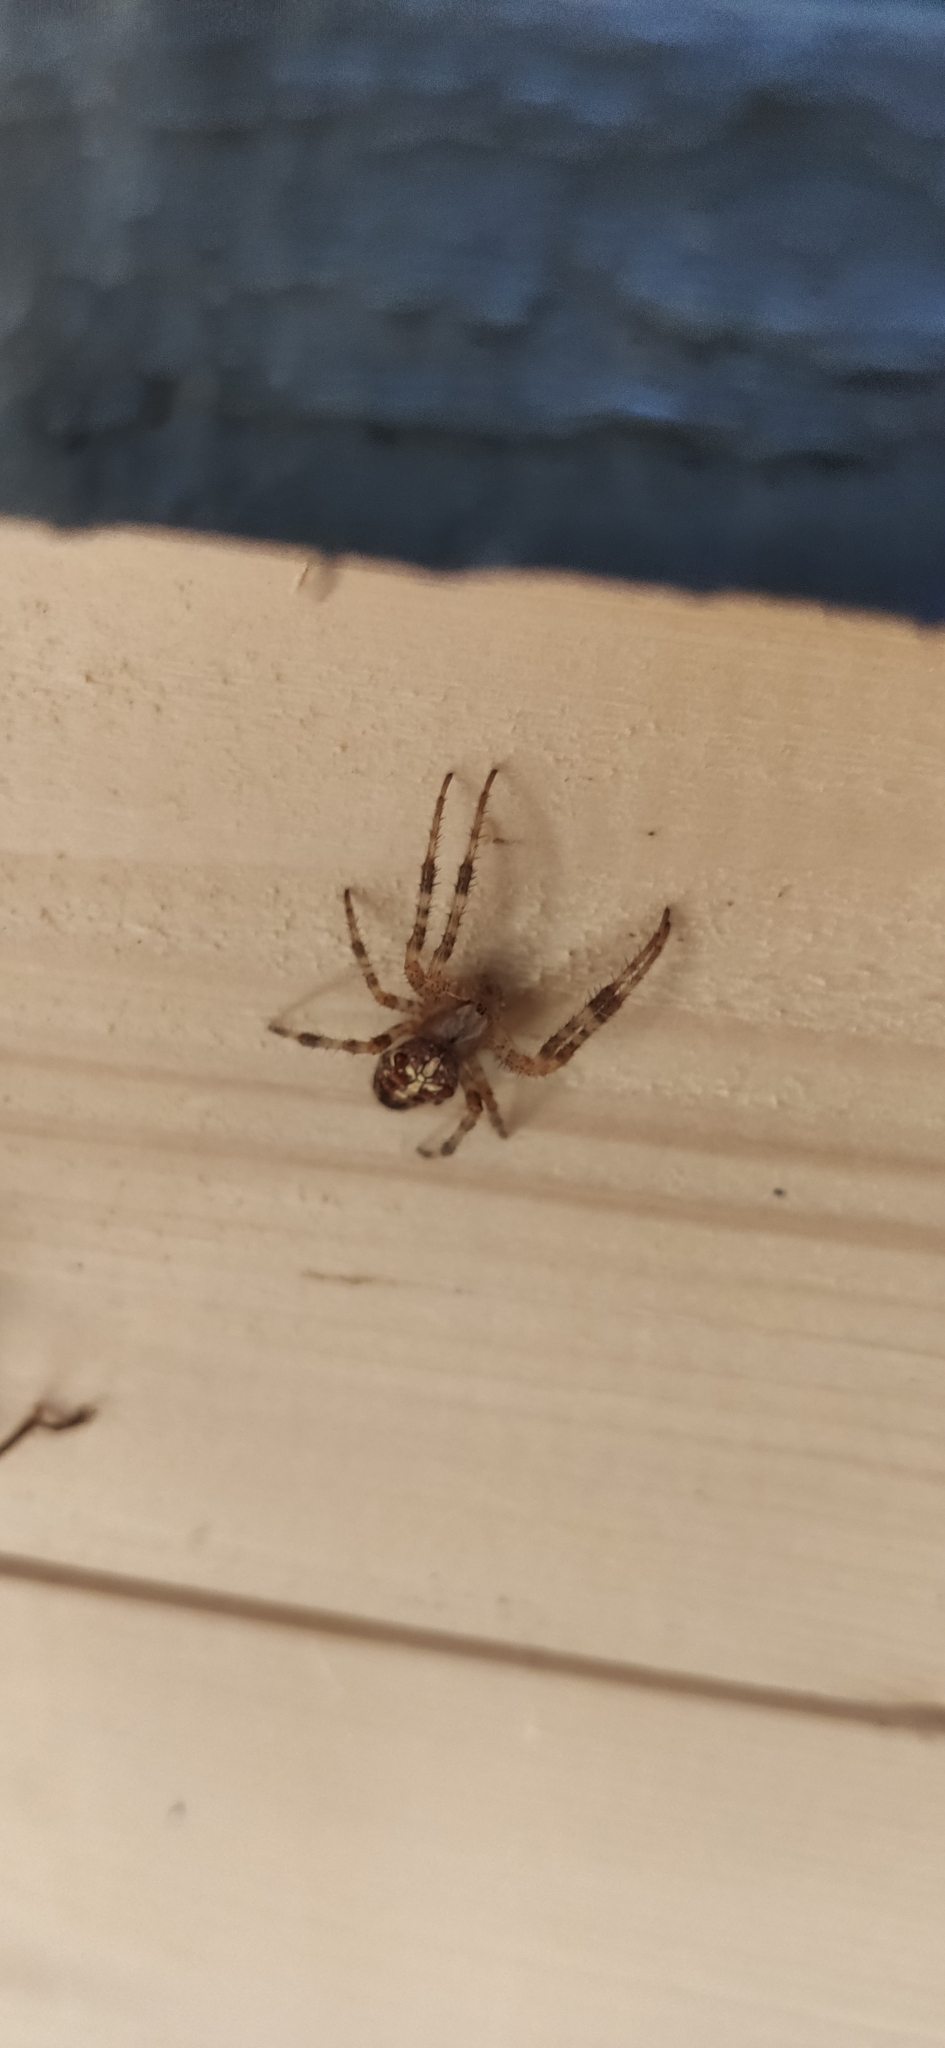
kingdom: Animalia
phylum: Arthropoda
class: Arachnida
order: Araneae
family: Araneidae
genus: Araneus
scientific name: Araneus diadematus
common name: Cross orbweaver
